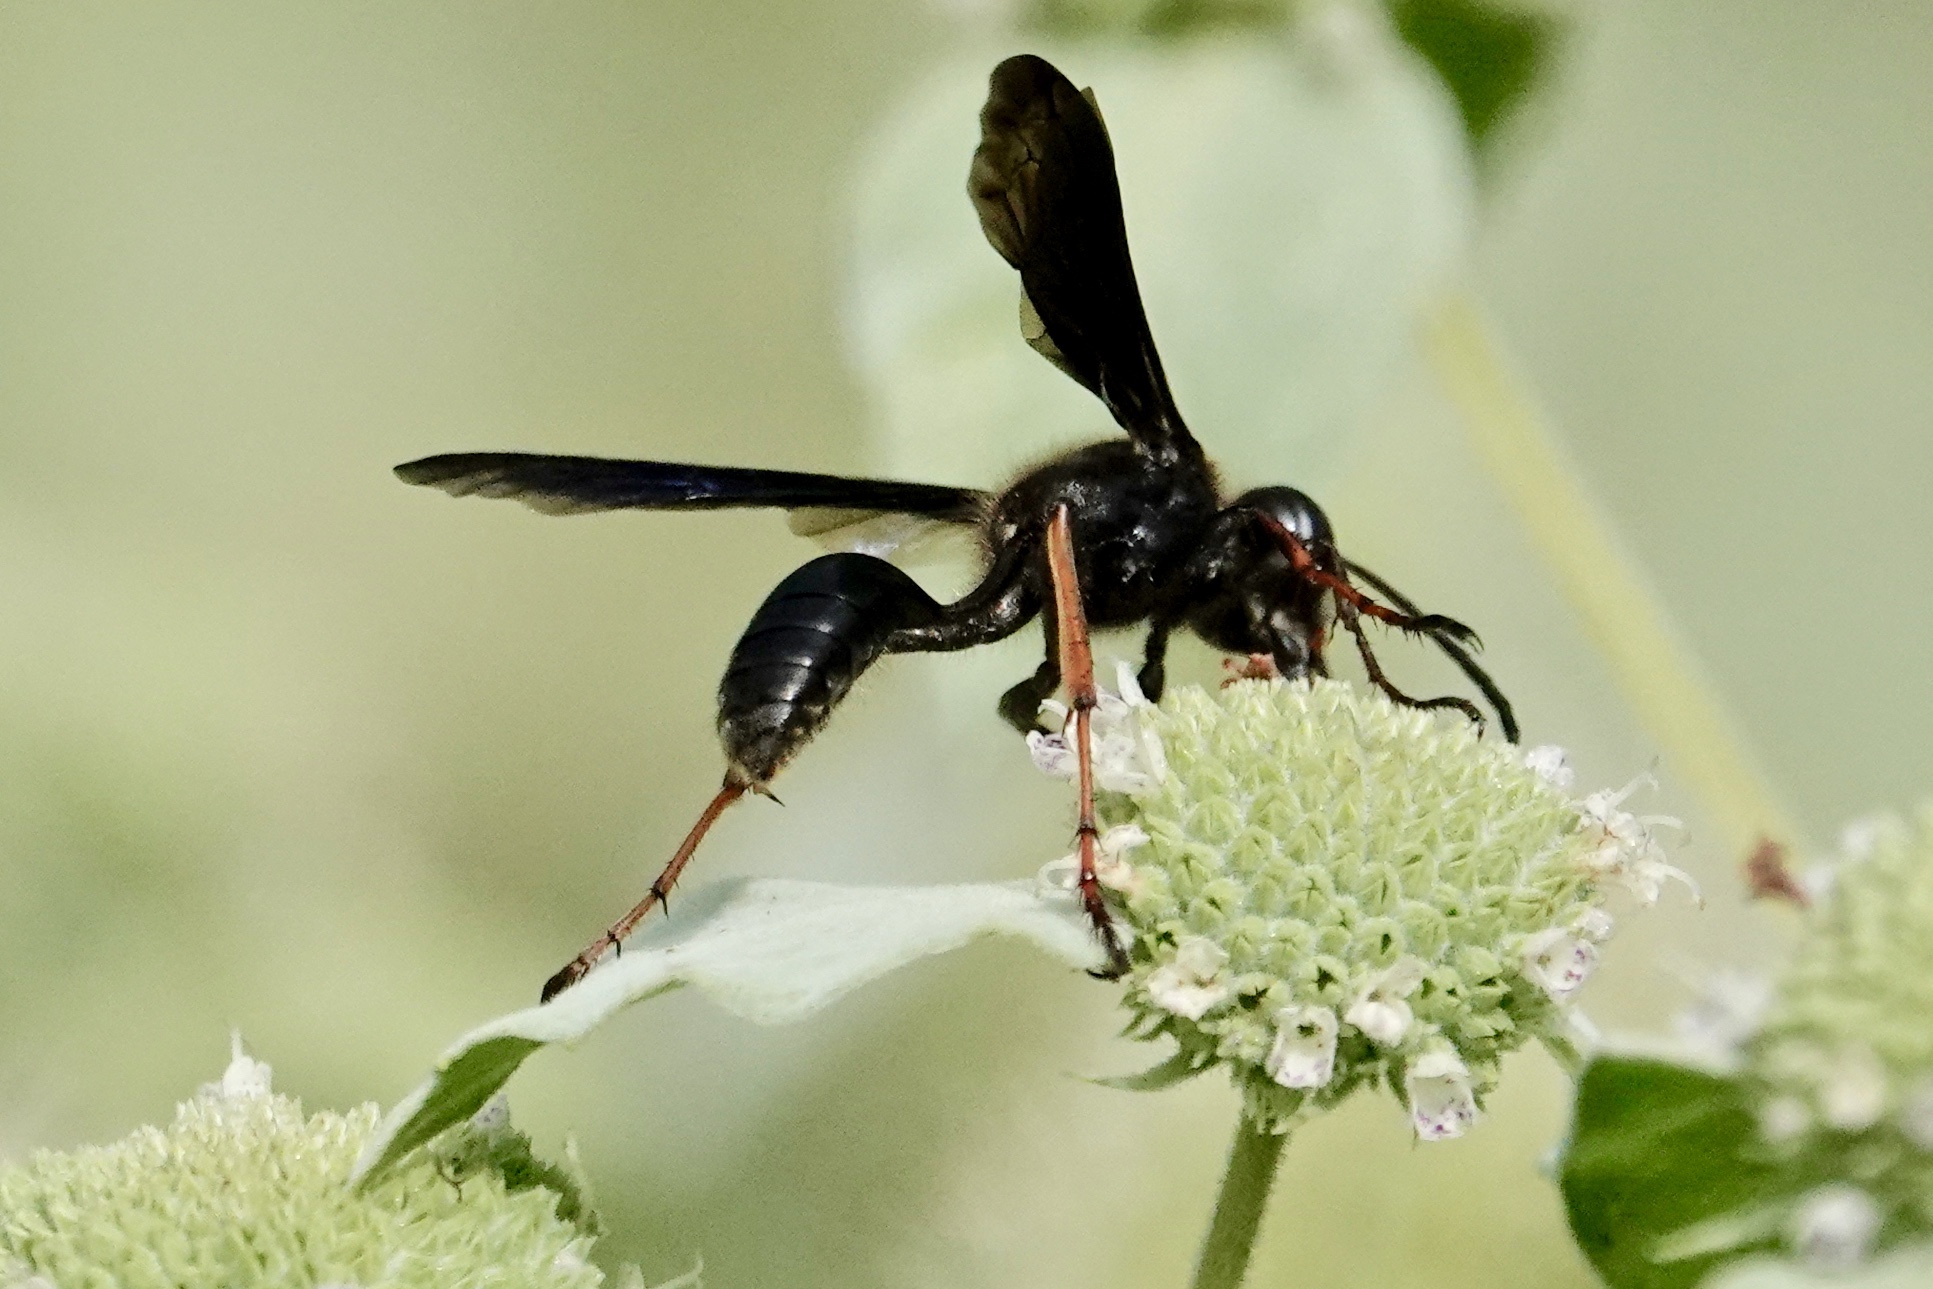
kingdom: Animalia
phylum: Arthropoda
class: Insecta
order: Hymenoptera
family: Sphecidae
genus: Isodontia
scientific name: Isodontia auripes
